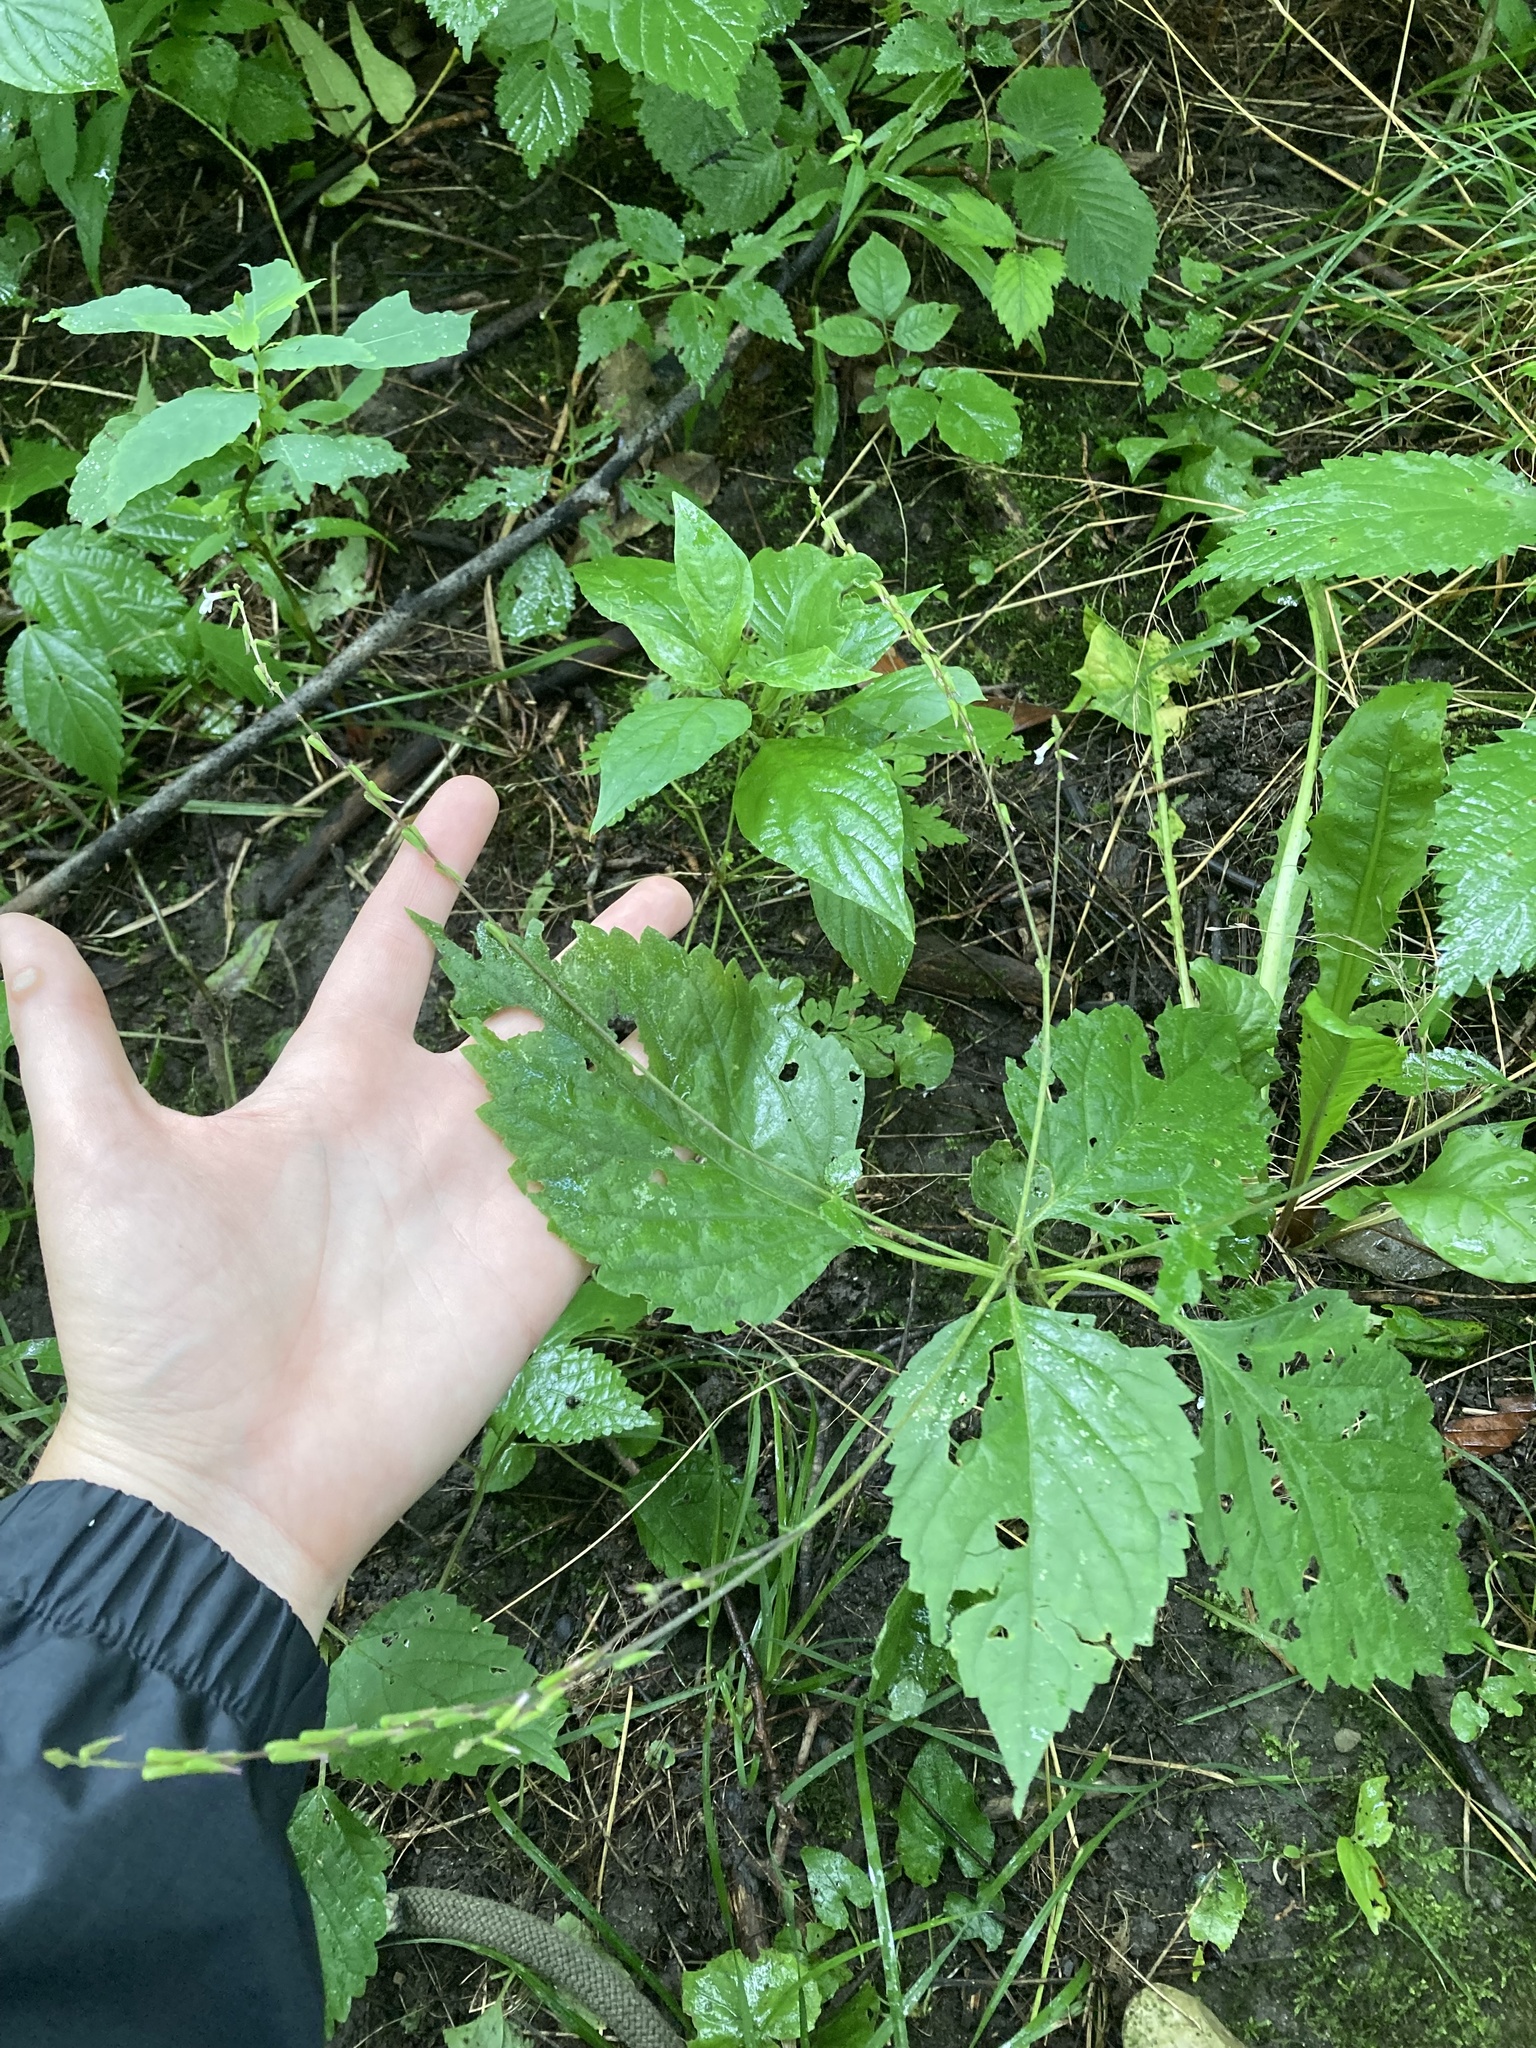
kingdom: Plantae
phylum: Tracheophyta
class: Magnoliopsida
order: Lamiales
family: Phrymaceae
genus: Phryma
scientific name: Phryma leptostachya
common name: American lopseed
